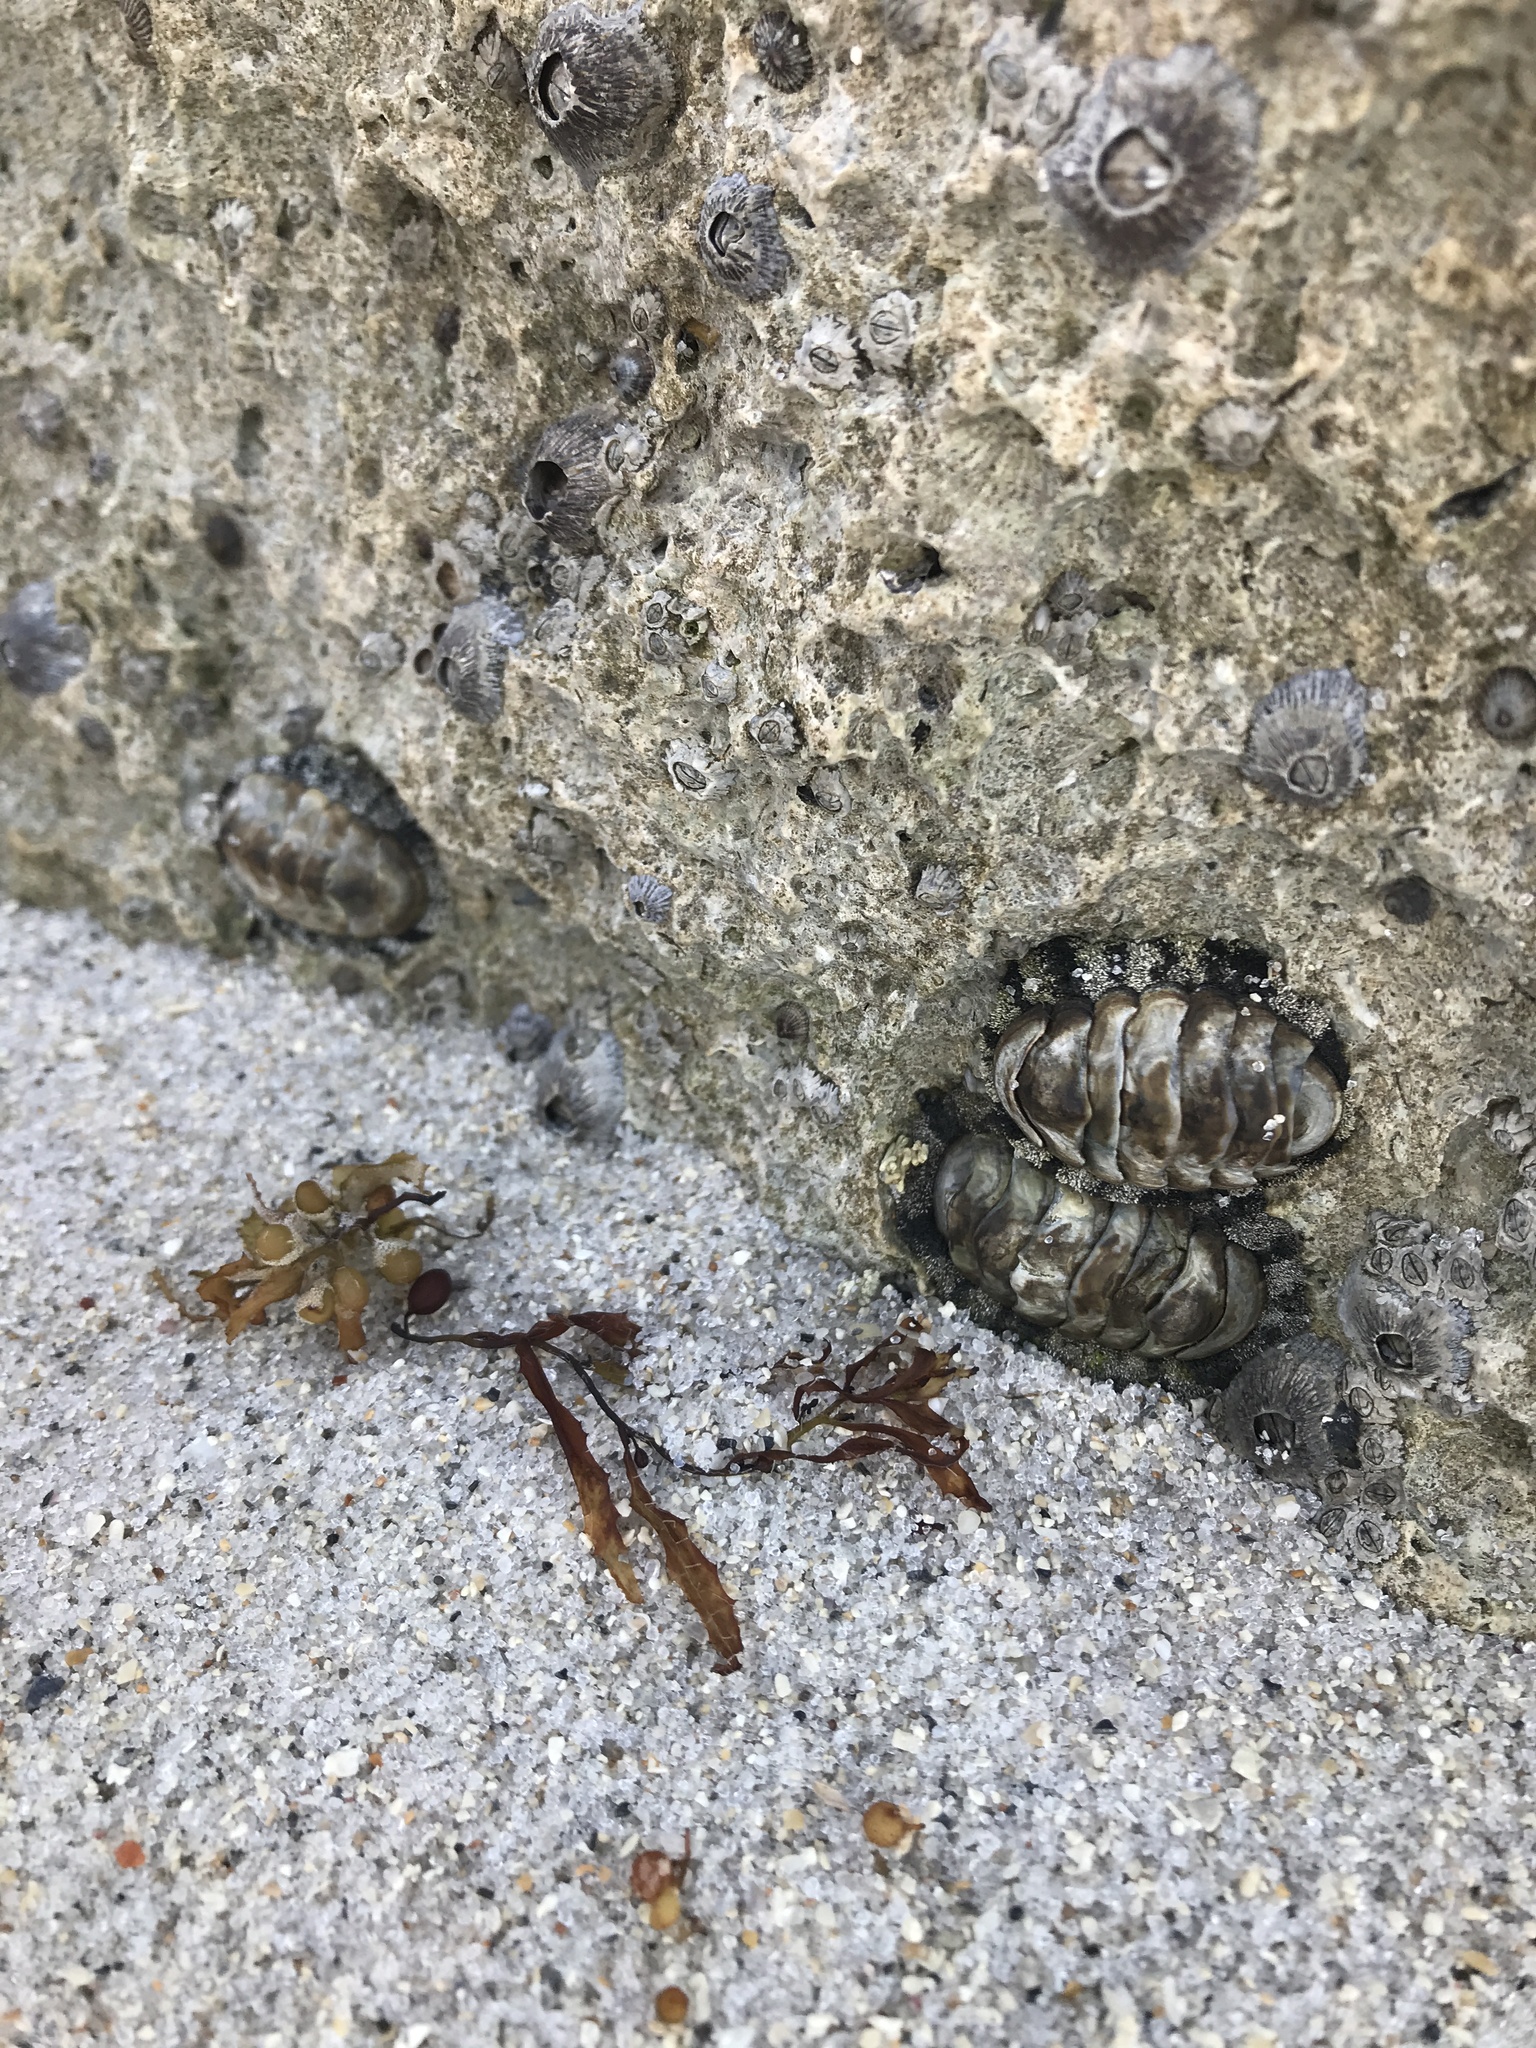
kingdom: Animalia
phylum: Mollusca
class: Polyplacophora
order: Chitonida
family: Chitonidae
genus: Acanthopleura
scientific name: Acanthopleura granulata
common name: West indian fuzzy chiton
